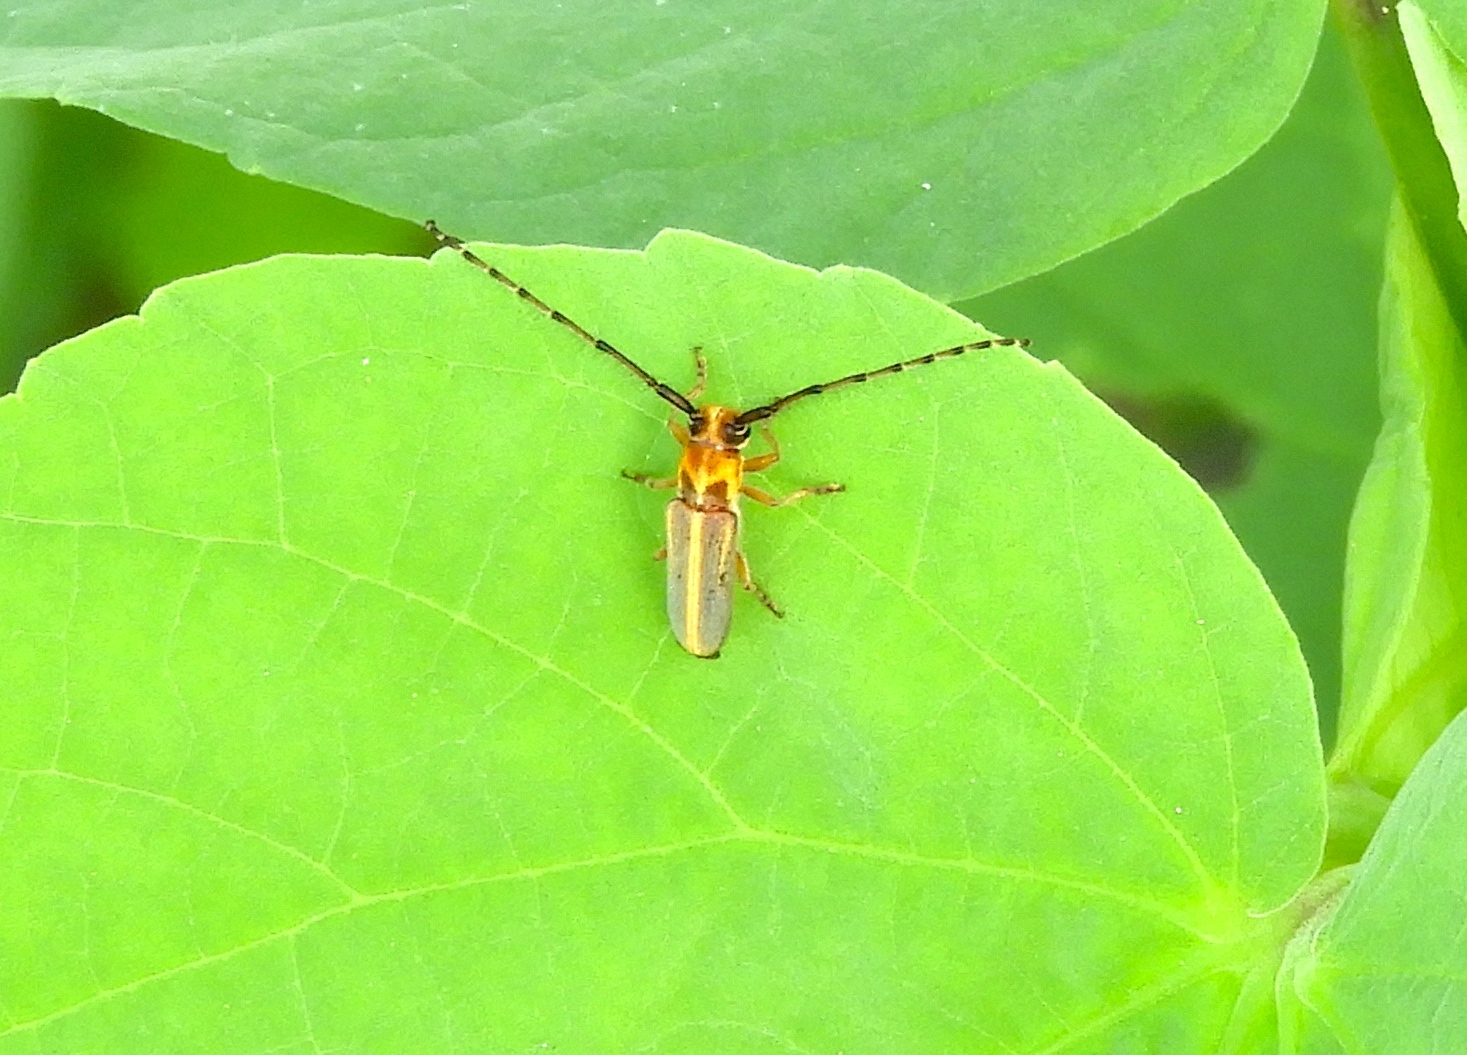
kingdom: Animalia
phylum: Arthropoda
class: Insecta
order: Coleoptera
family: Cerambycidae
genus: Essostrutha
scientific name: Essostrutha binotata
